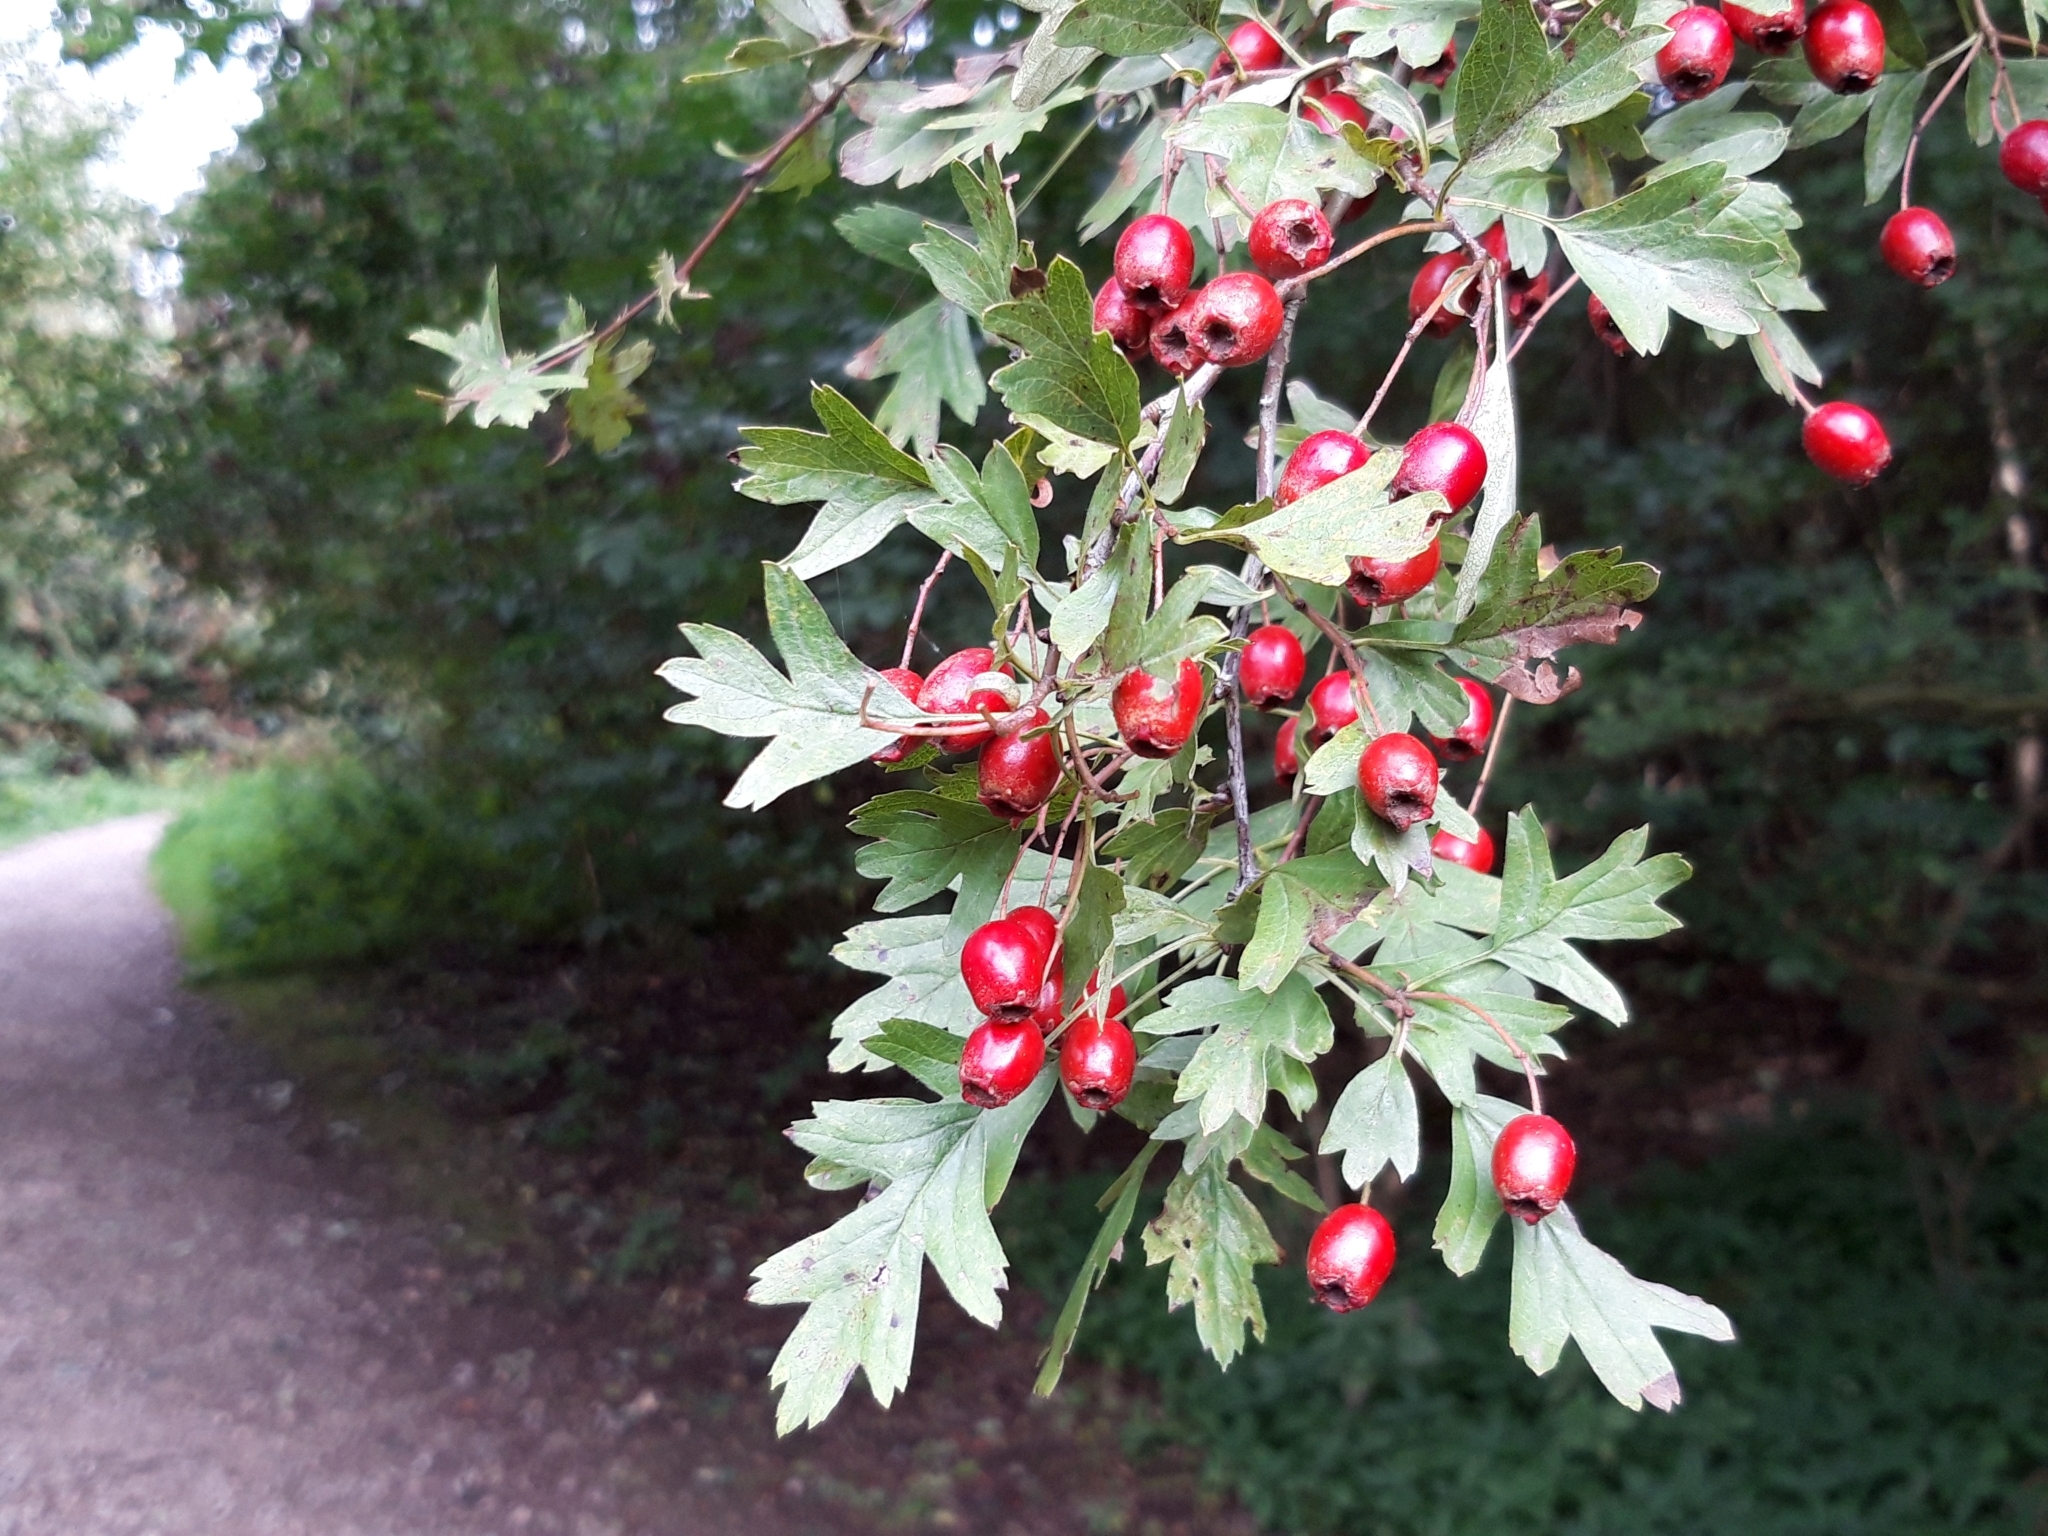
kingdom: Plantae
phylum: Tracheophyta
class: Magnoliopsida
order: Rosales
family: Rosaceae
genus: Crataegus
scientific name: Crataegus monogyna
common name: Hawthorn
